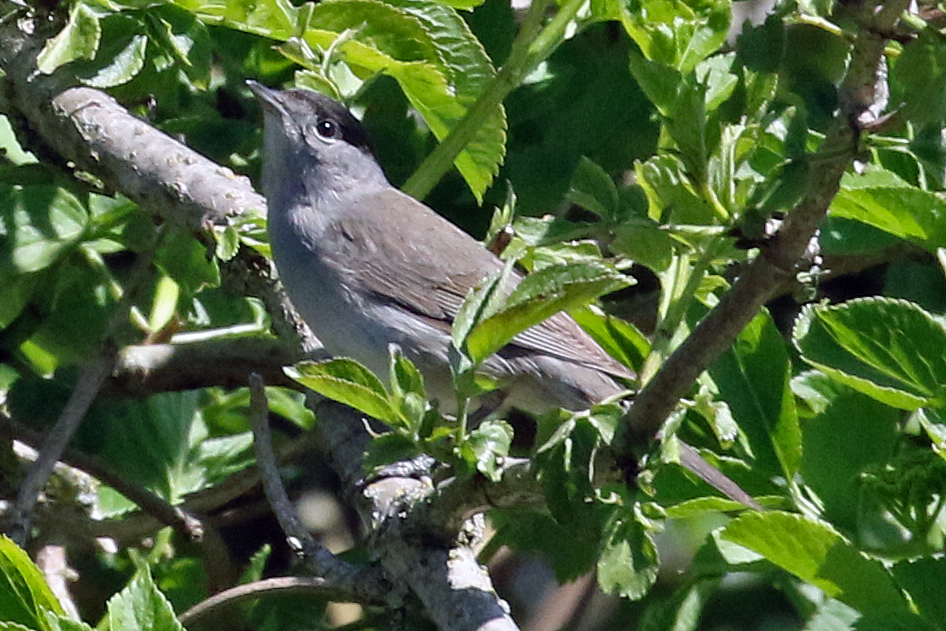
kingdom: Animalia
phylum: Chordata
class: Aves
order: Passeriformes
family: Sylviidae
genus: Sylvia
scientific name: Sylvia atricapilla
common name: Eurasian blackcap
